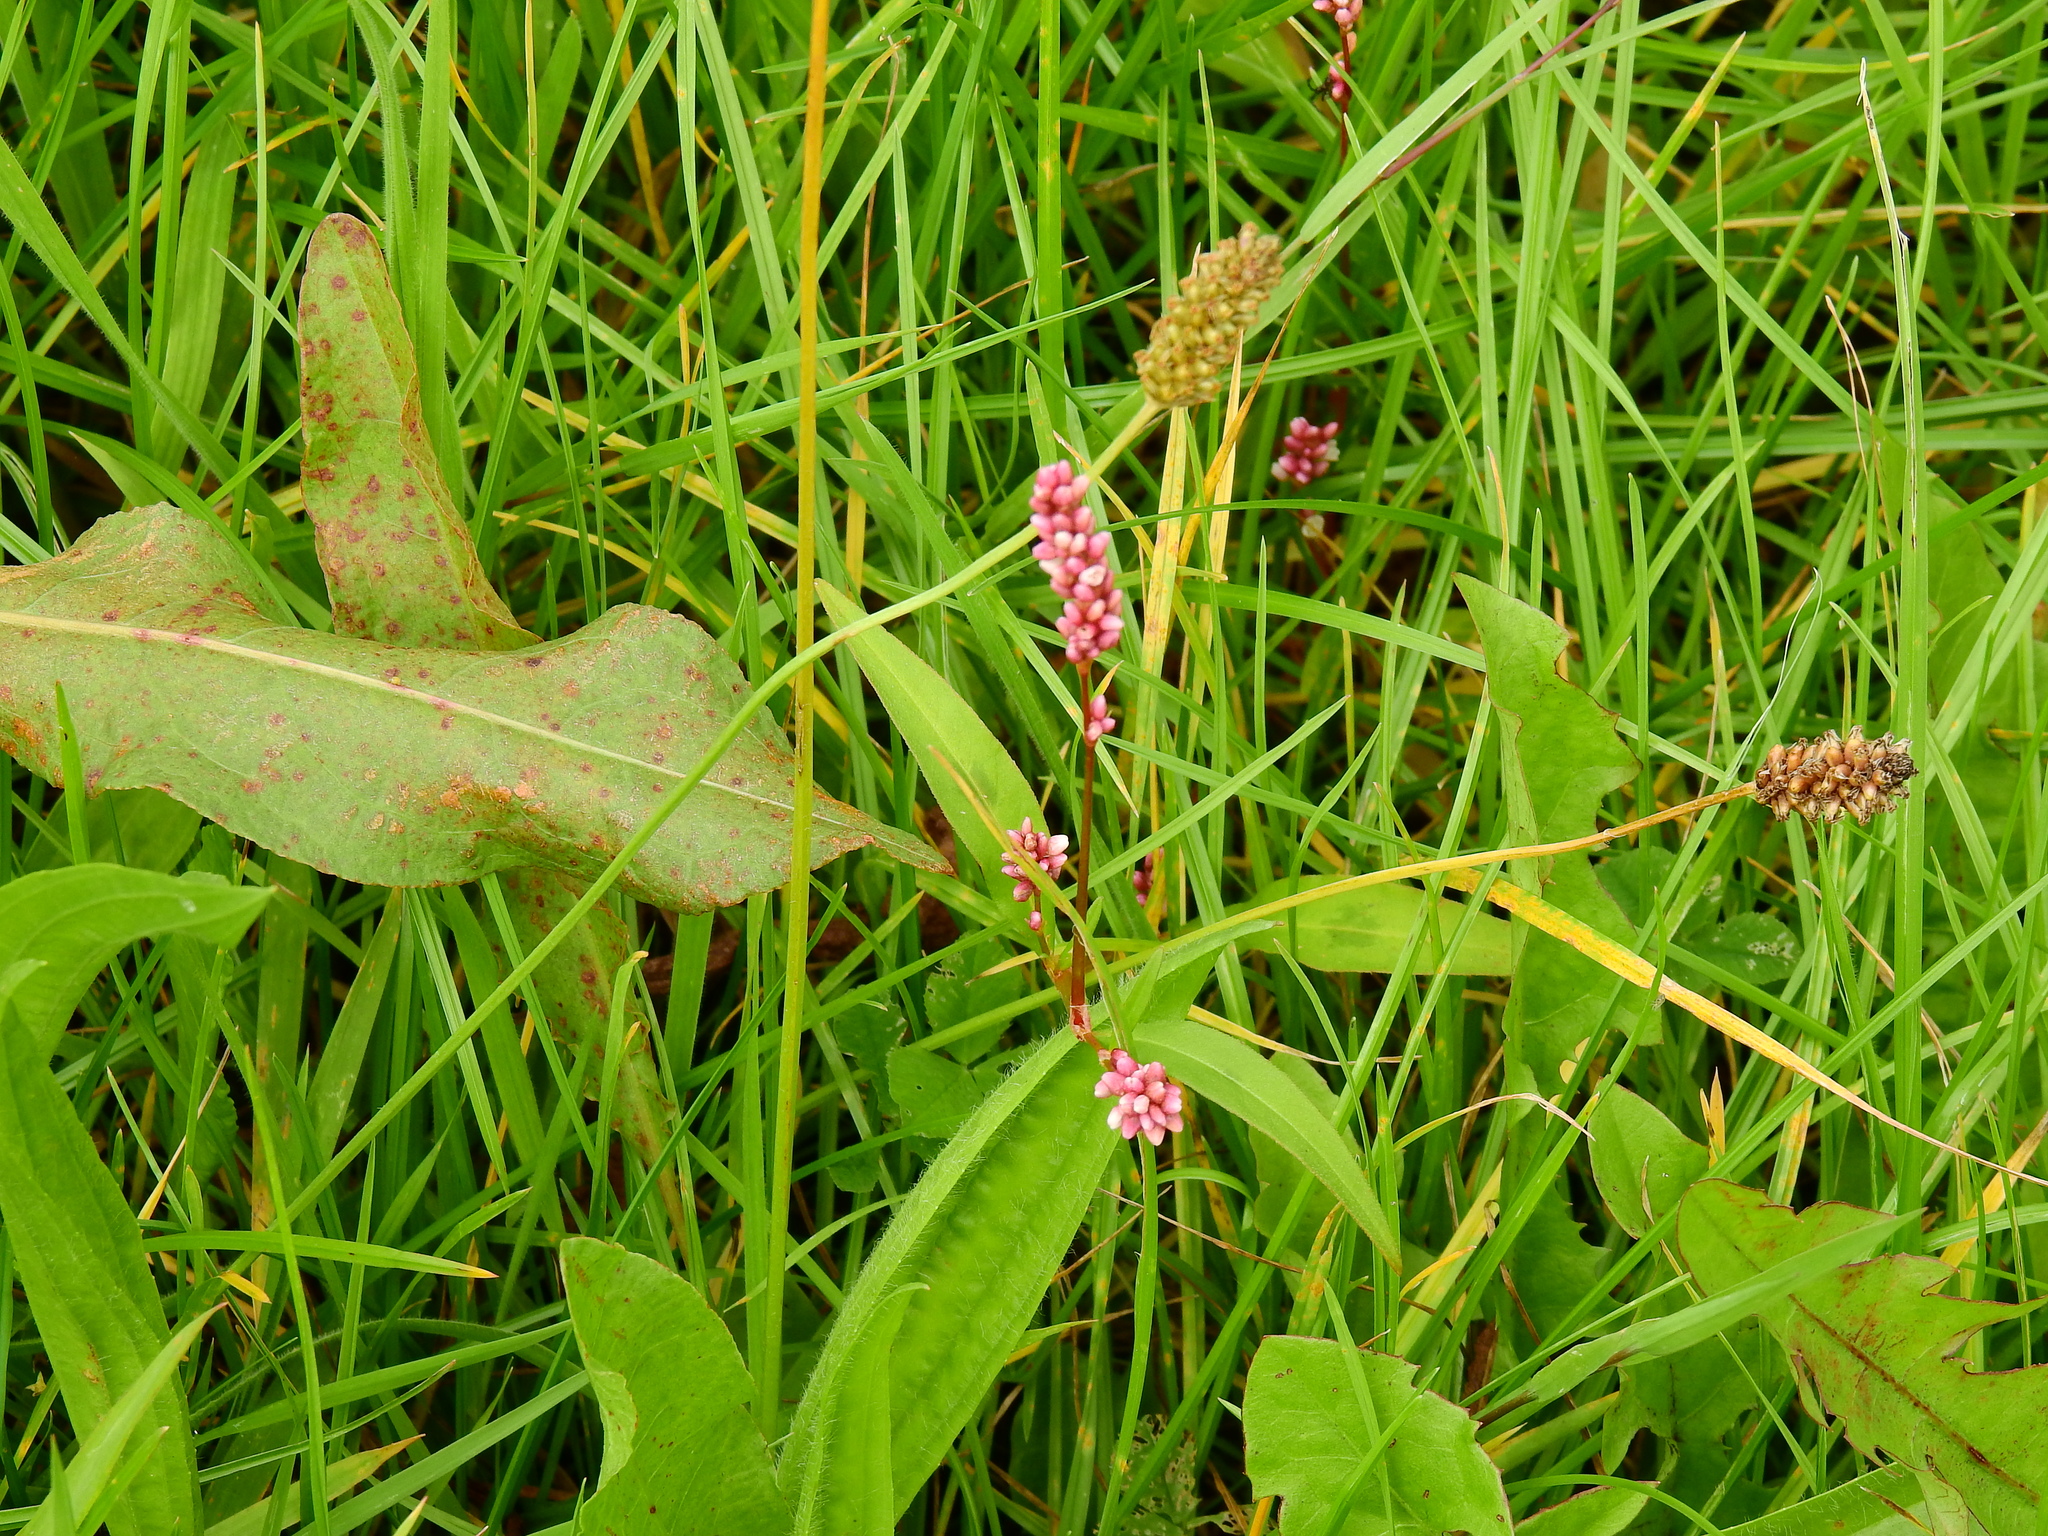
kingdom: Plantae
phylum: Tracheophyta
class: Magnoliopsida
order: Caryophyllales
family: Polygonaceae
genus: Persicaria
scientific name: Persicaria maculosa
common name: Redshank
